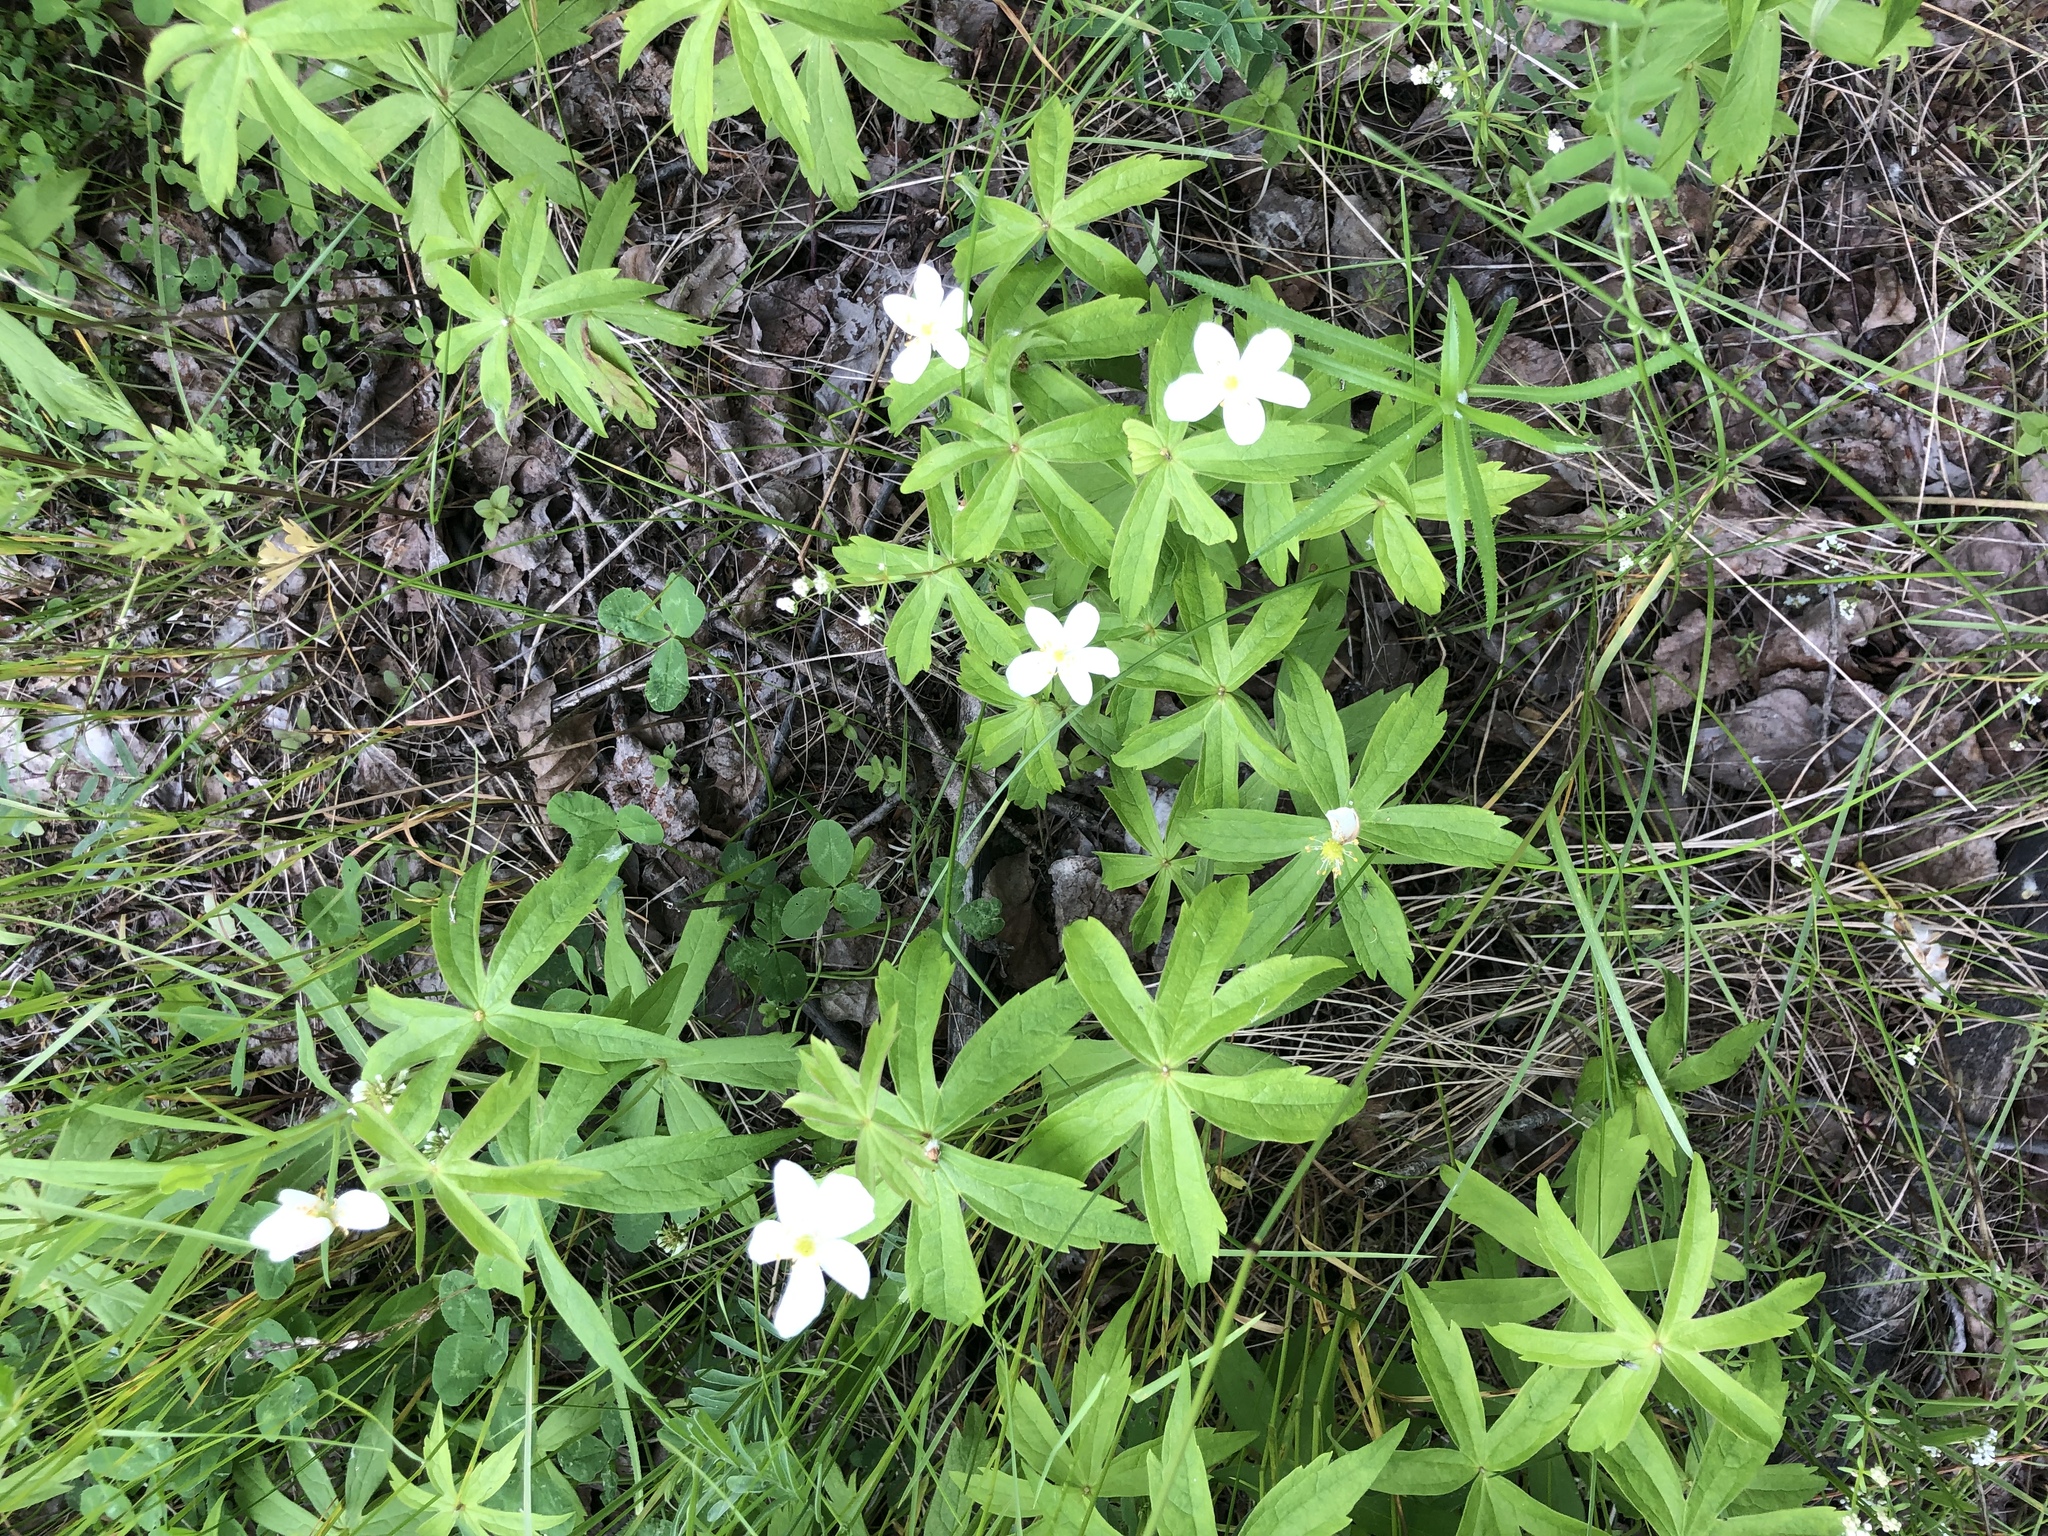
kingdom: Plantae
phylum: Tracheophyta
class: Magnoliopsida
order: Ranunculales
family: Ranunculaceae
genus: Anemonastrum
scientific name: Anemonastrum dichotomum
